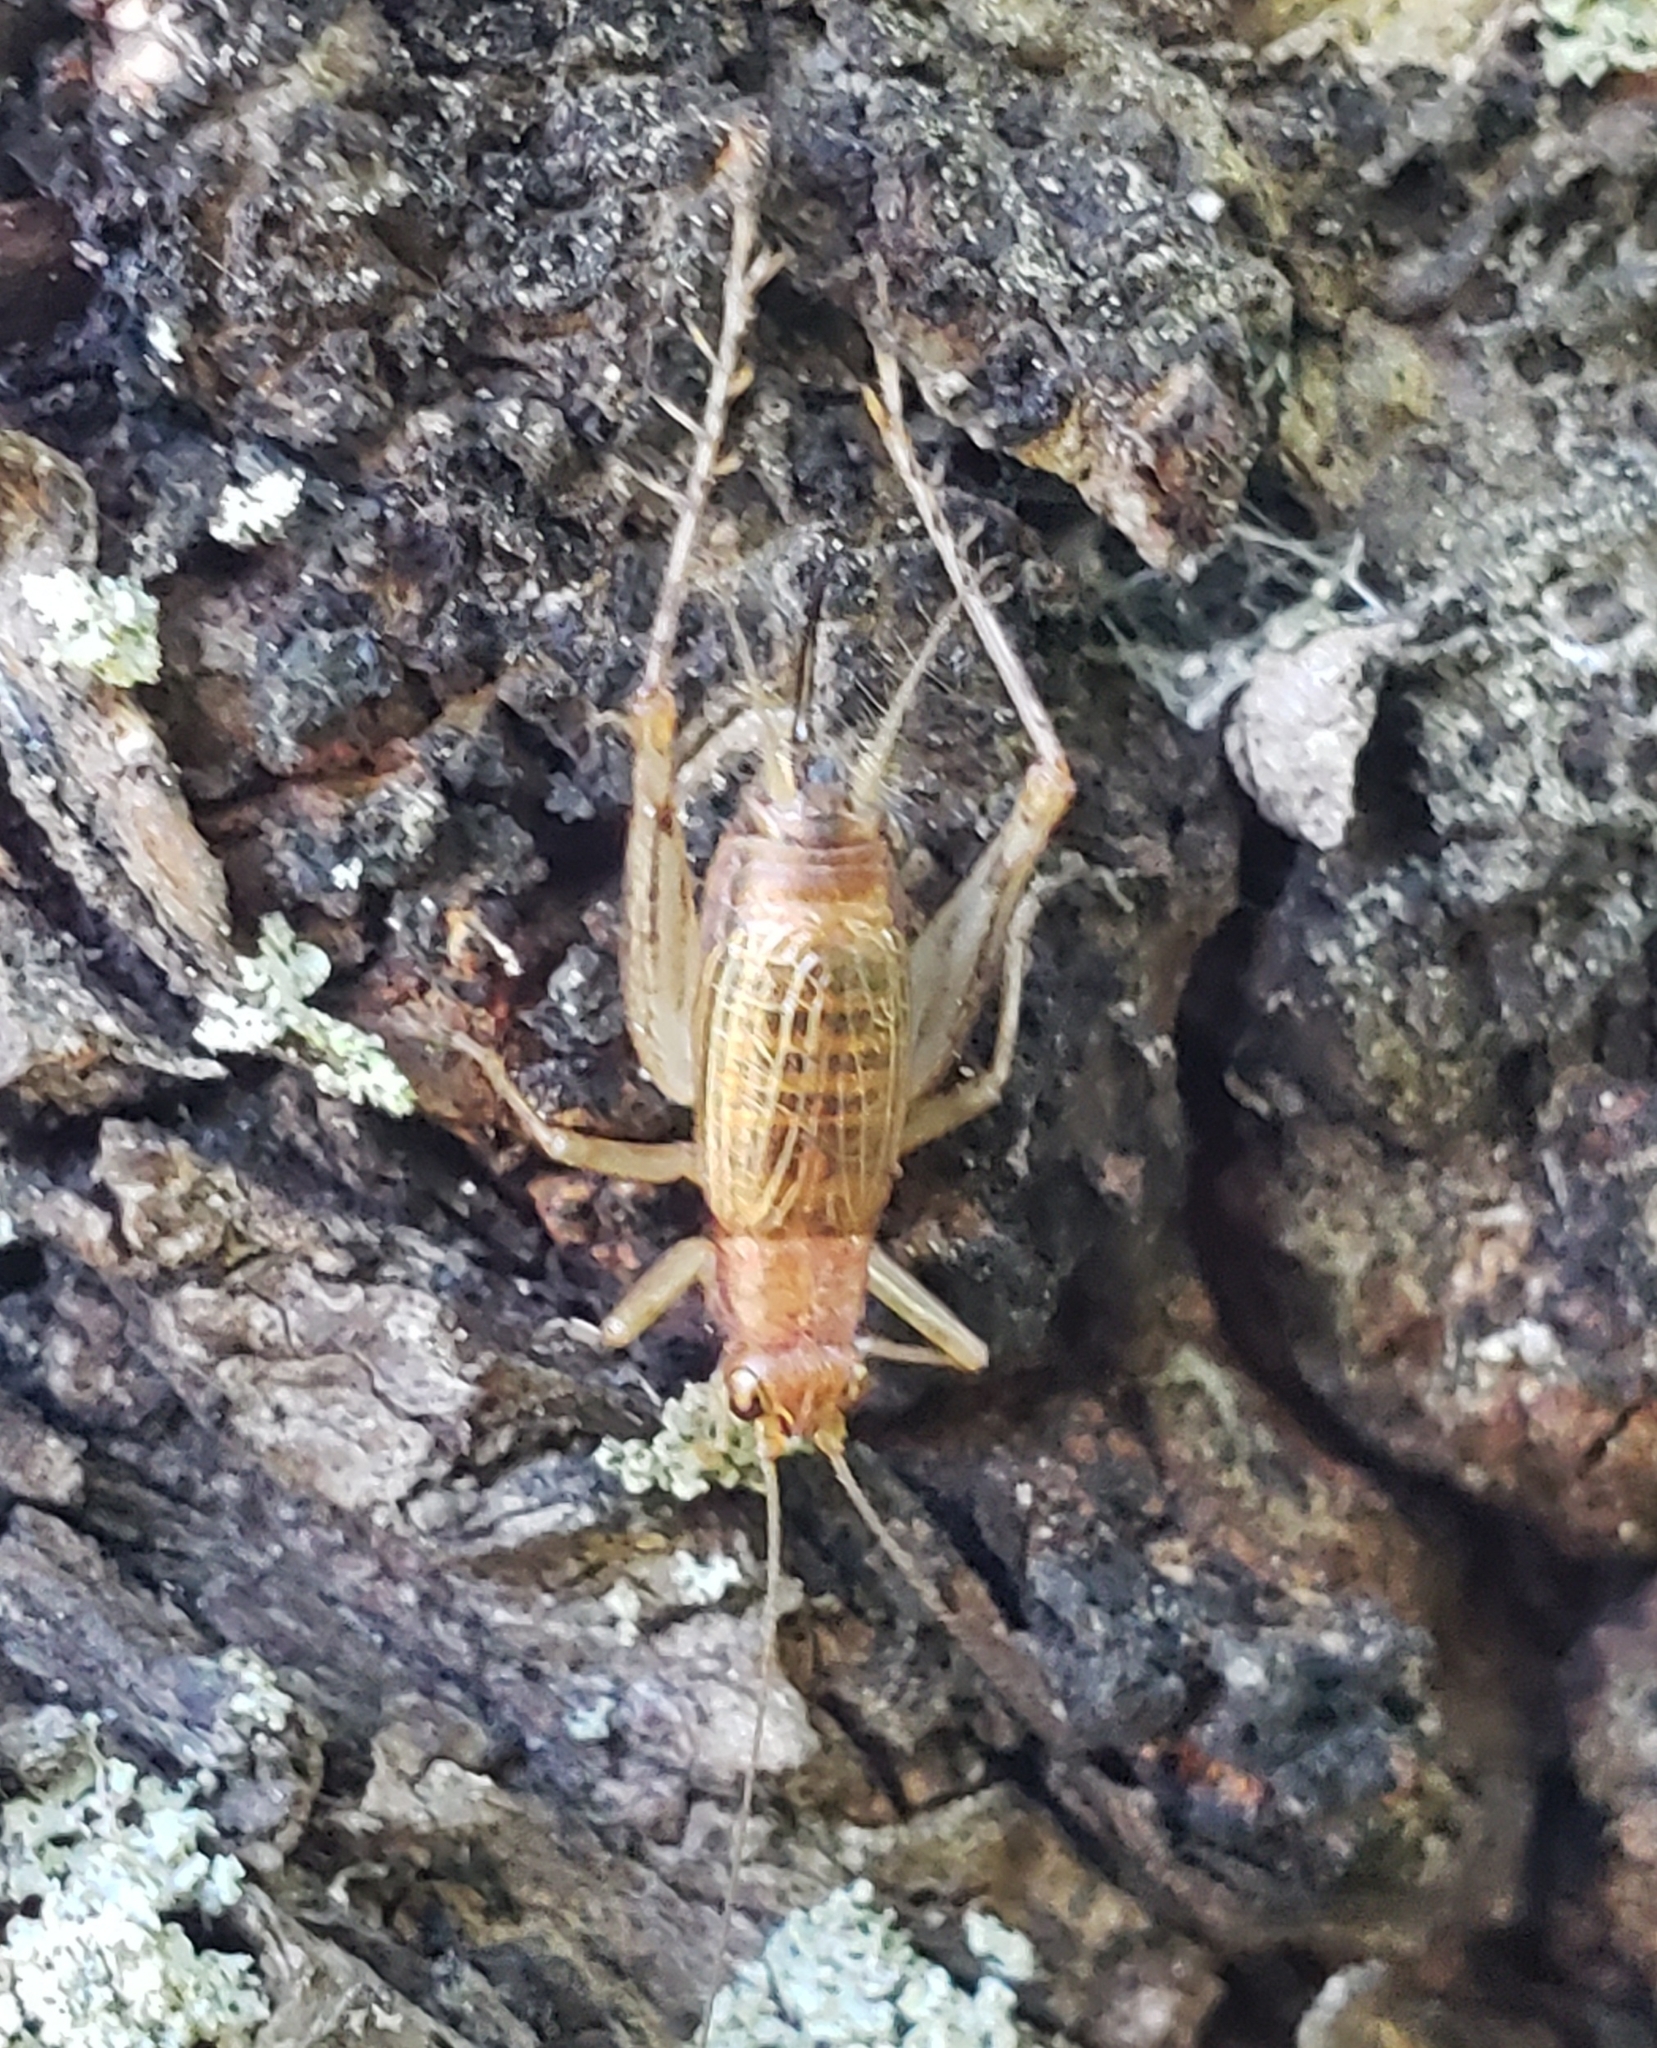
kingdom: Animalia
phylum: Arthropoda
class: Insecta
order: Orthoptera
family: Trigonidiidae
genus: Anaxipha
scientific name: Anaxipha exigua
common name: Say's bush cricket
